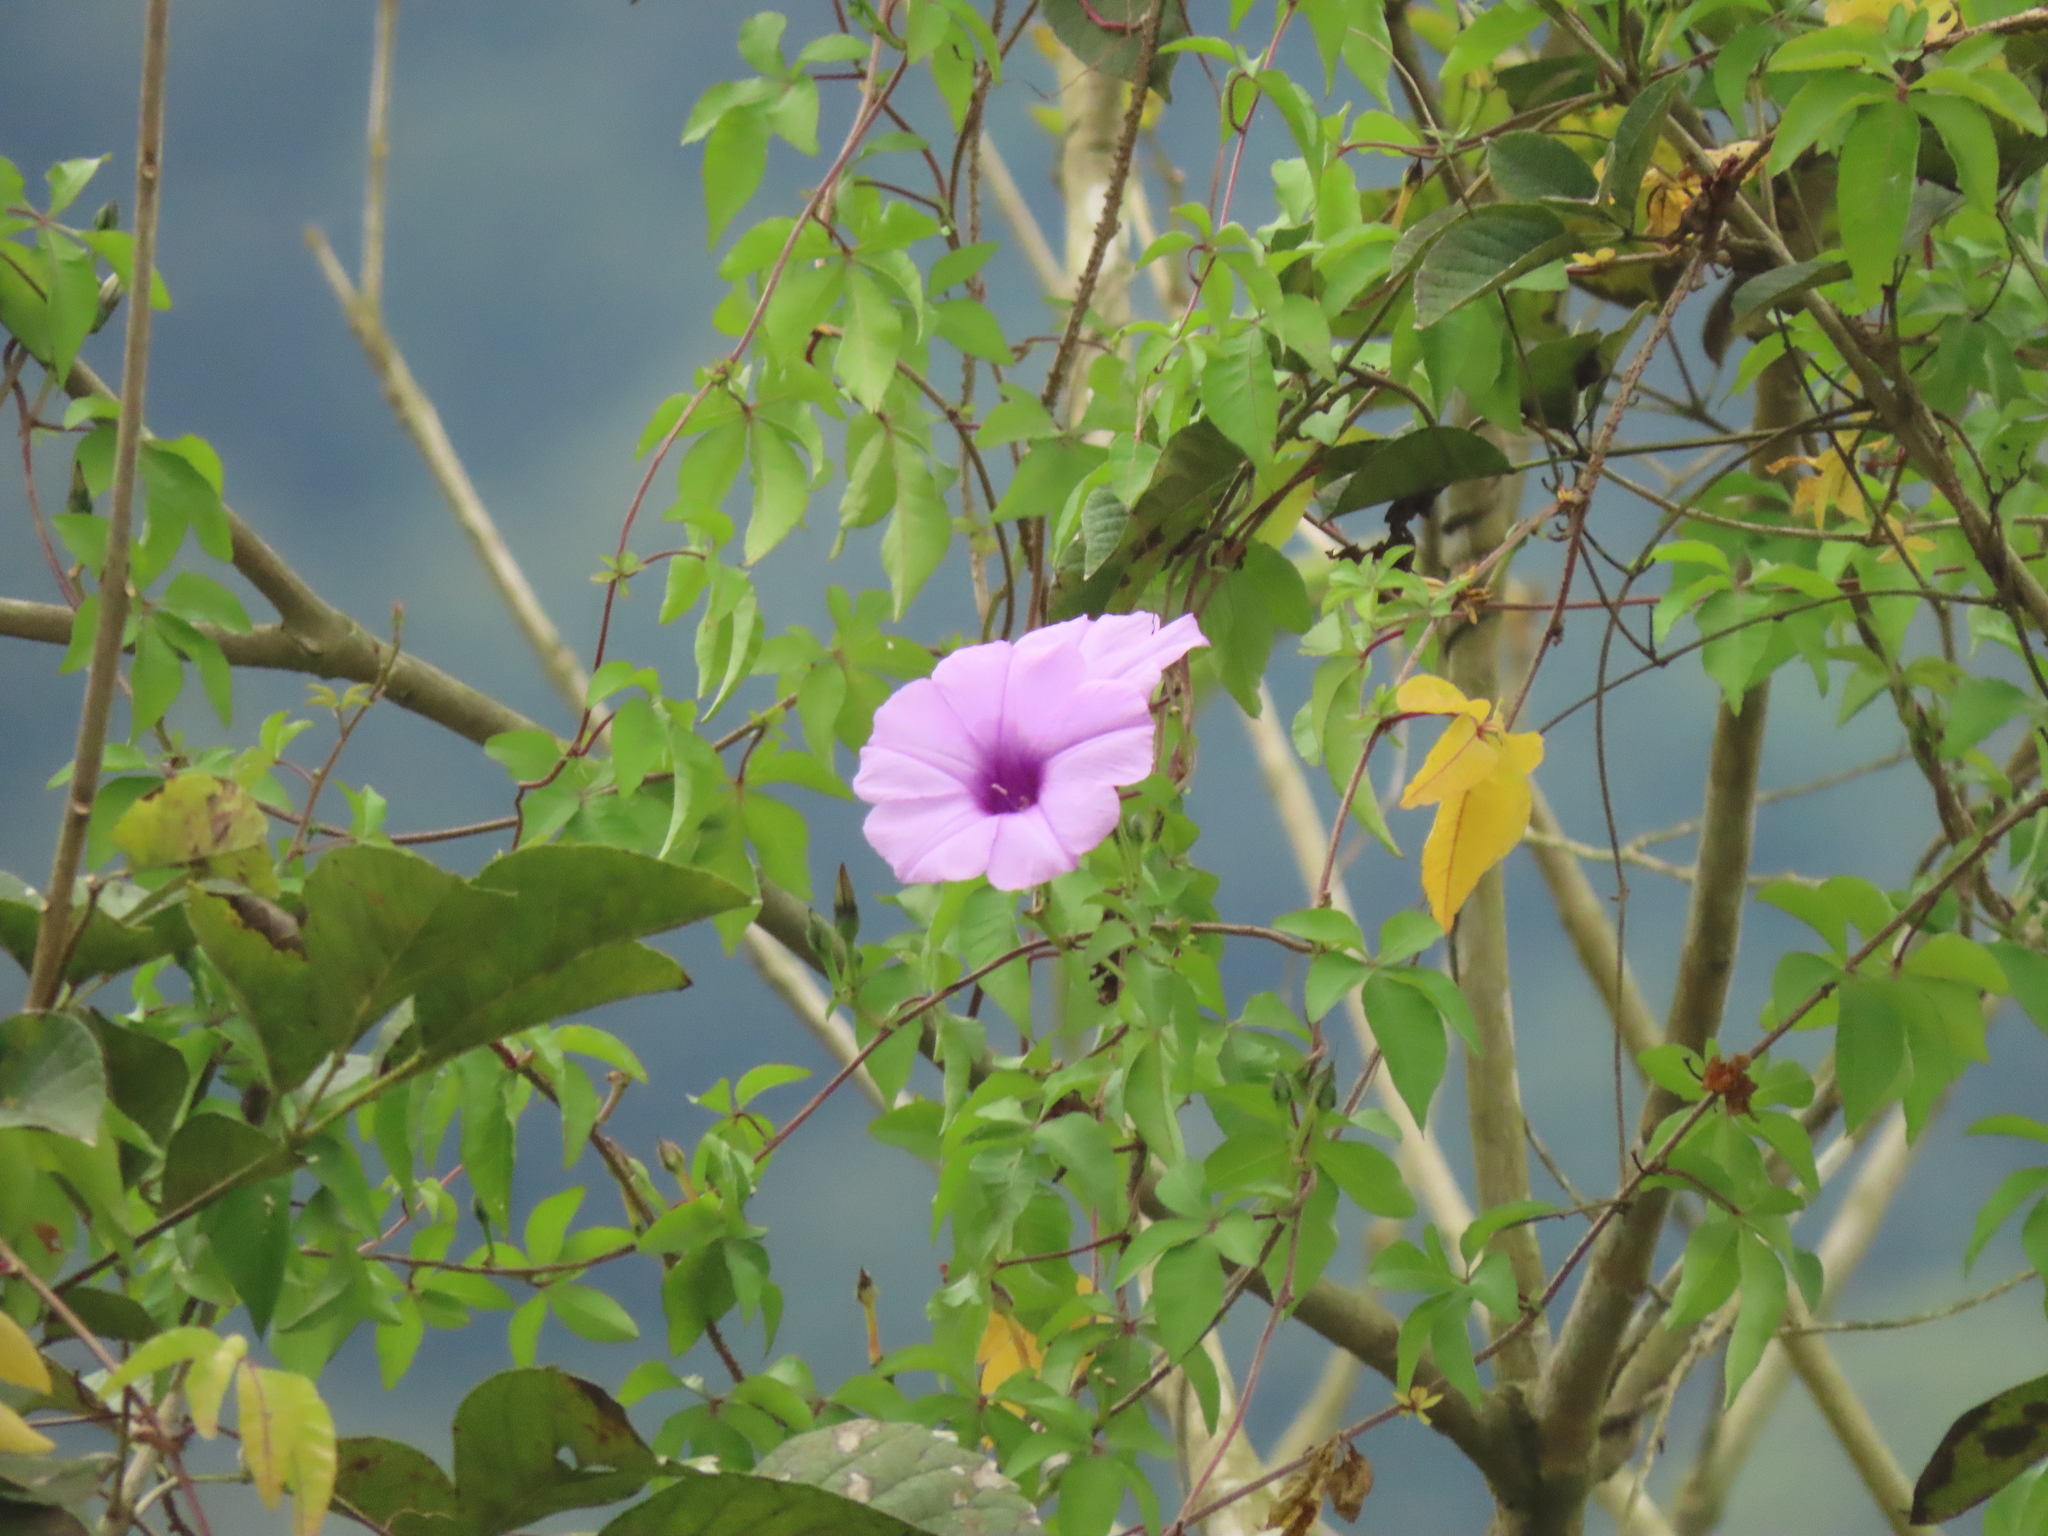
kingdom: Plantae
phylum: Tracheophyta
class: Magnoliopsida
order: Solanales
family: Convolvulaceae
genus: Ipomoea
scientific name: Ipomoea cairica
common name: Mile a minute vine
